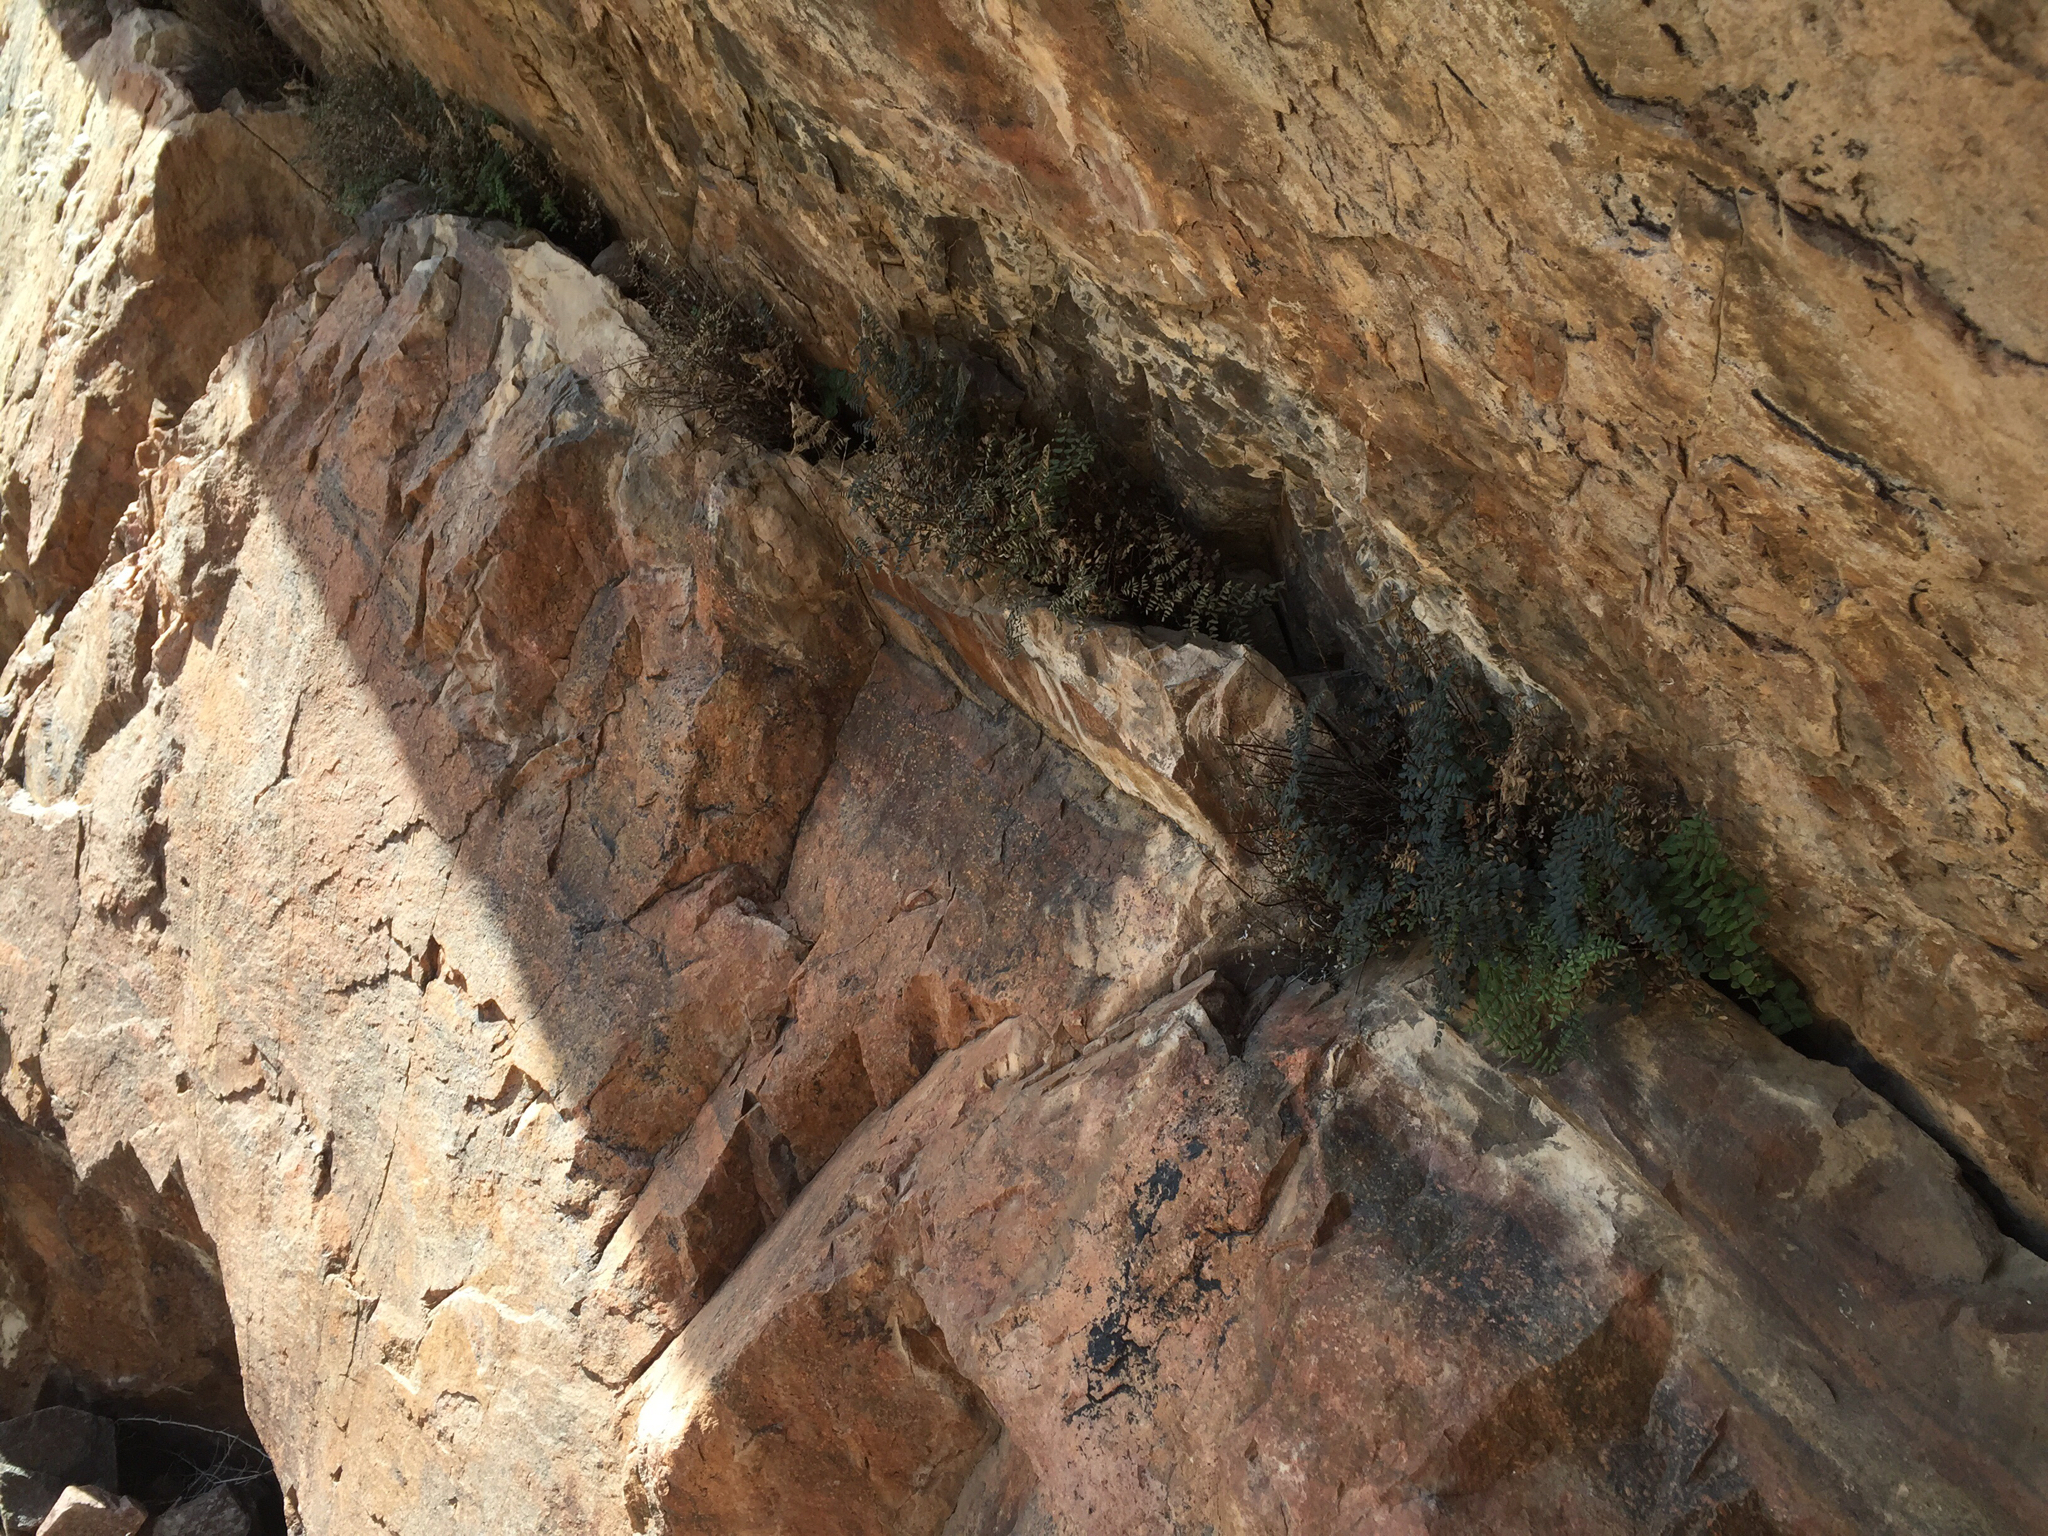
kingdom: Plantae
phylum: Tracheophyta
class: Polypodiopsida
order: Polypodiales
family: Pteridaceae
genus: Pellaea
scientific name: Pellaea truncata
